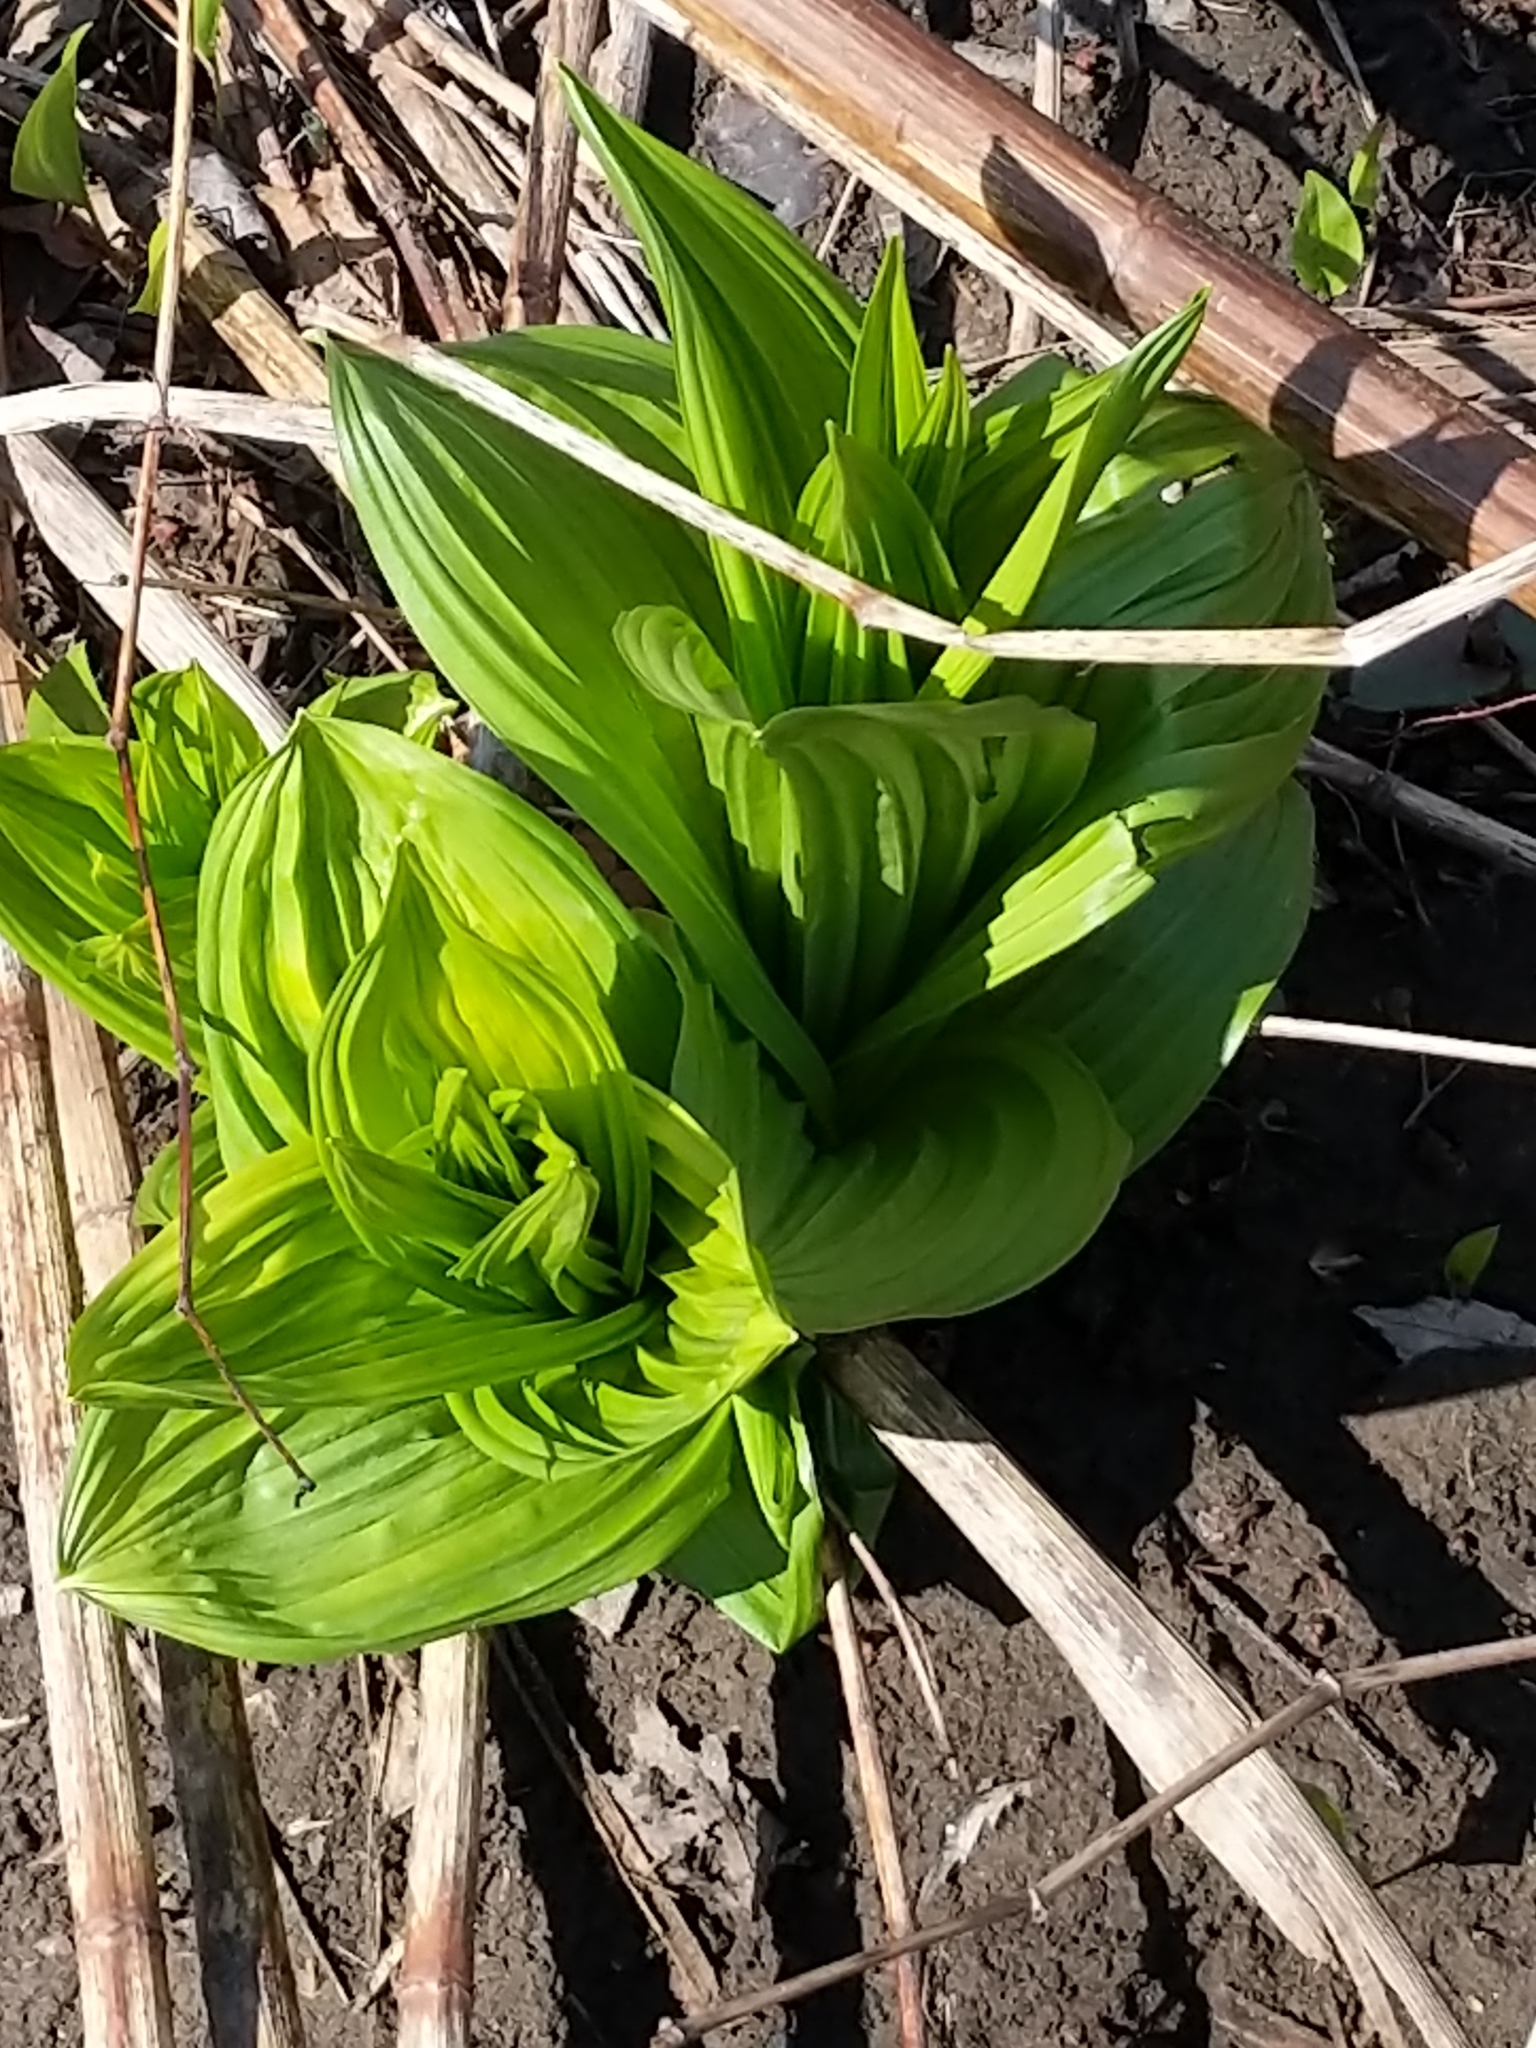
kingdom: Plantae
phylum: Tracheophyta
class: Liliopsida
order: Liliales
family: Melanthiaceae
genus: Veratrum
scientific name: Veratrum viride
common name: American false hellebore
